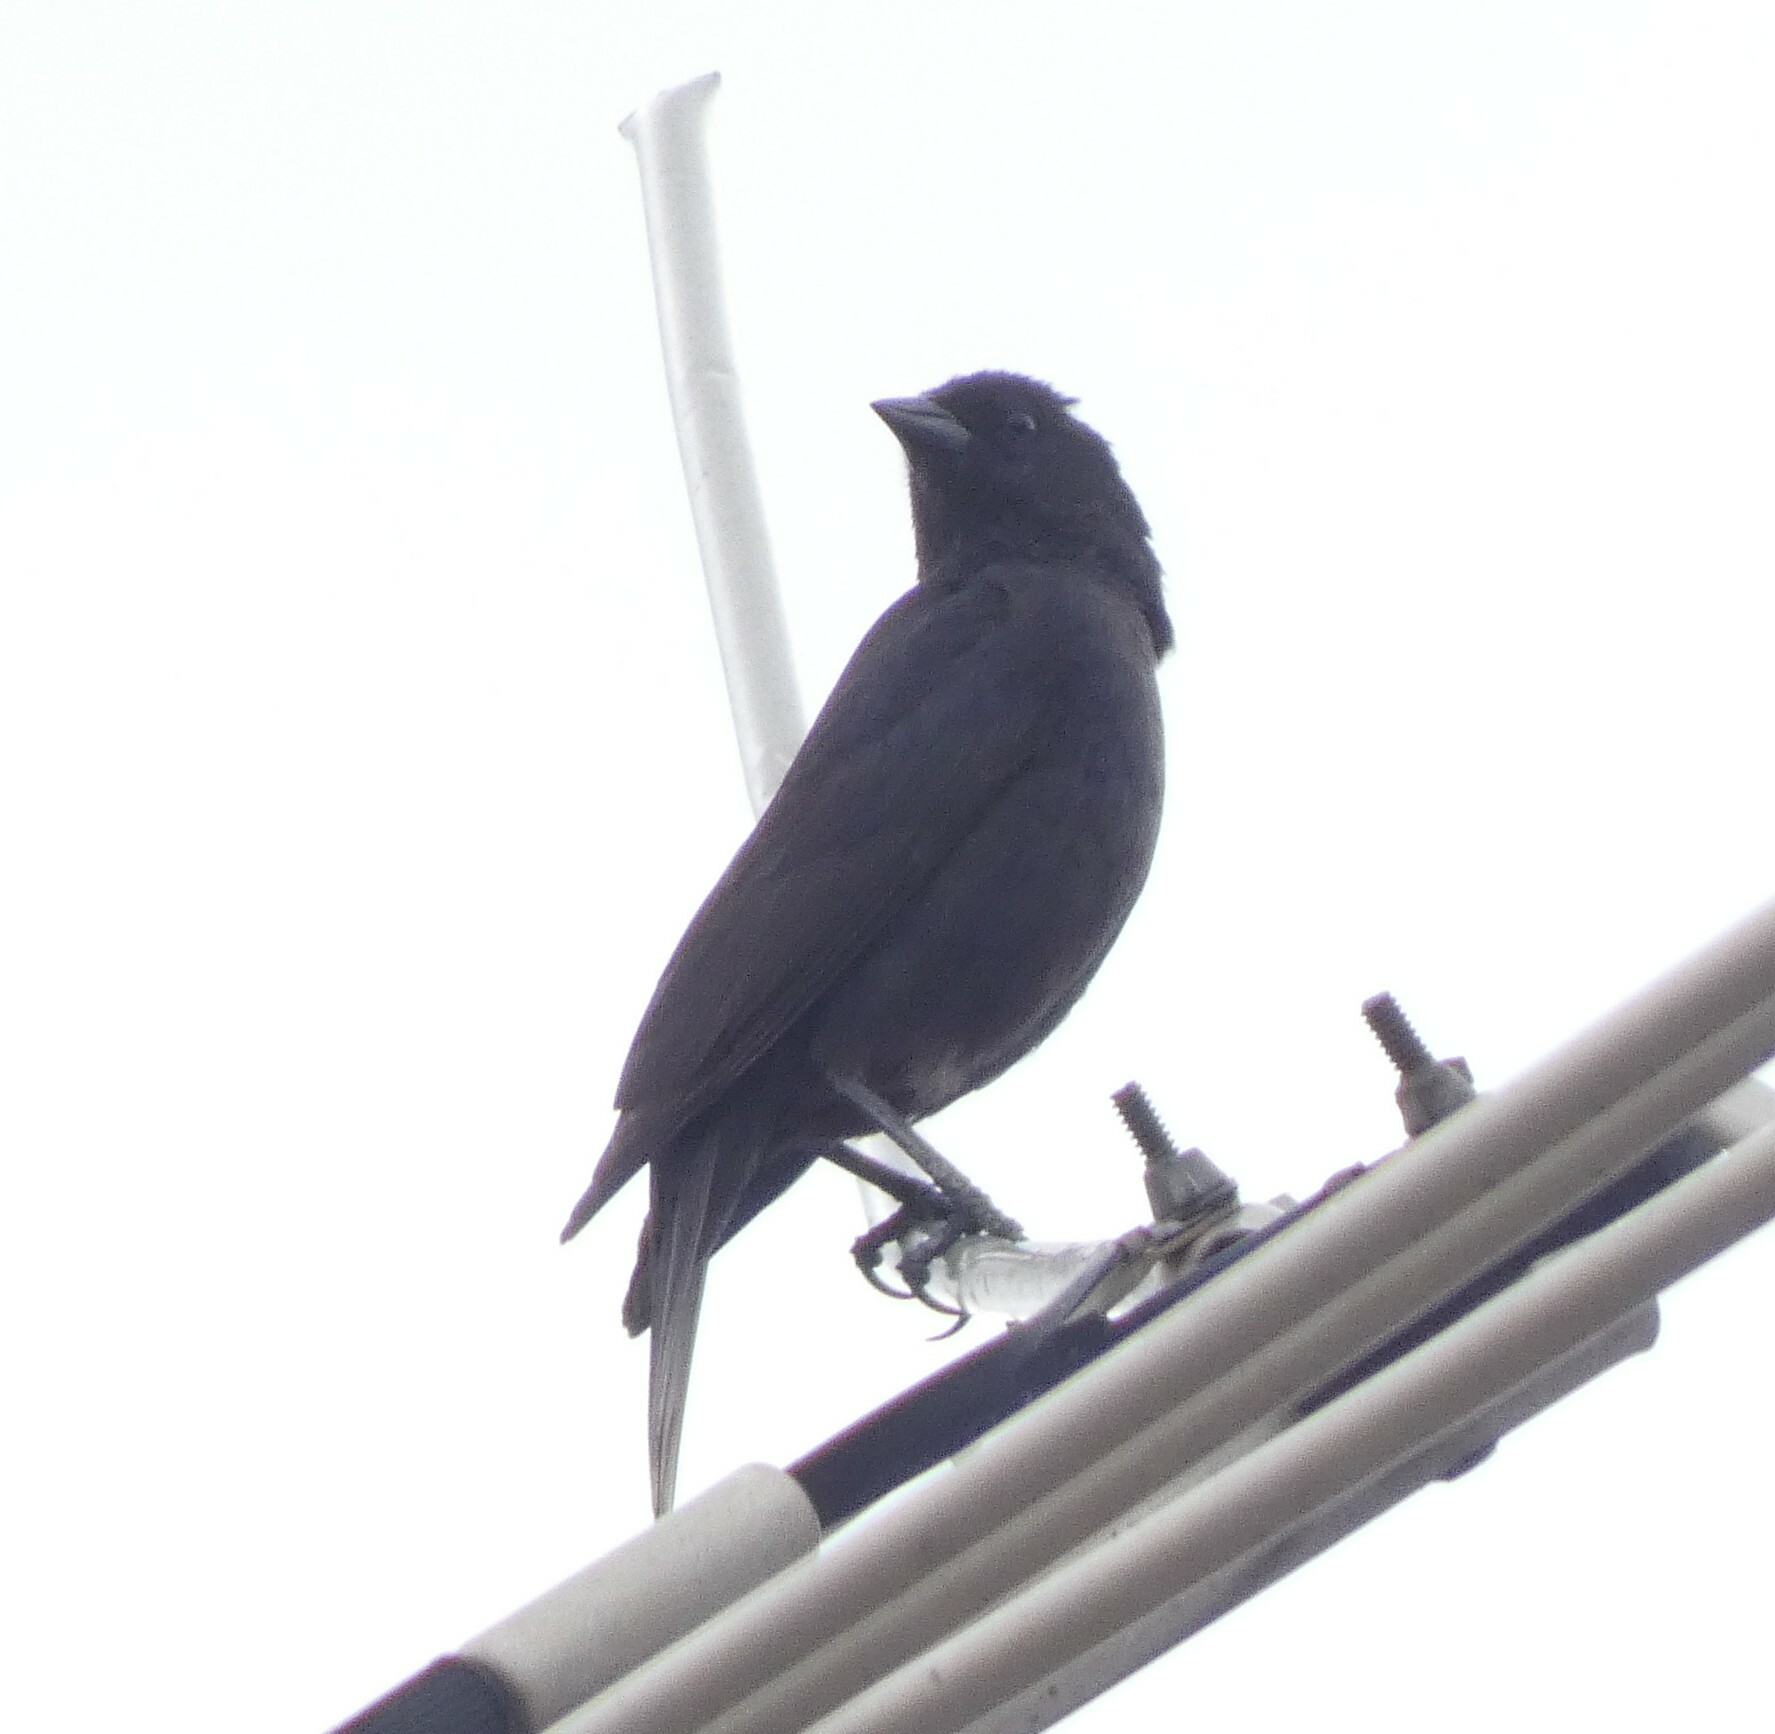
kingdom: Animalia
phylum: Chordata
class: Aves
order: Passeriformes
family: Icteridae
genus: Molothrus
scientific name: Molothrus bonariensis
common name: Shiny cowbird
